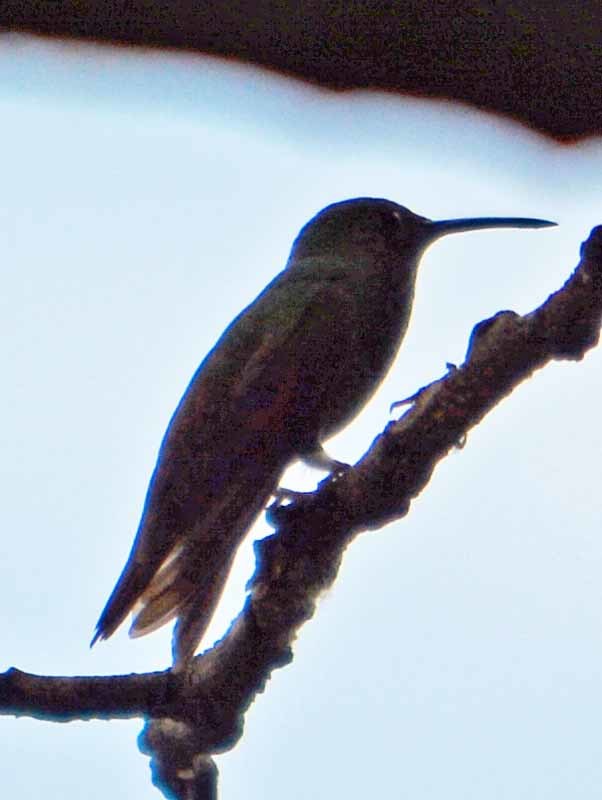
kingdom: Animalia
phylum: Chordata
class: Aves
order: Apodiformes
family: Trochilidae
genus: Saucerottia
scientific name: Saucerottia beryllina
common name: Berylline hummingbird
